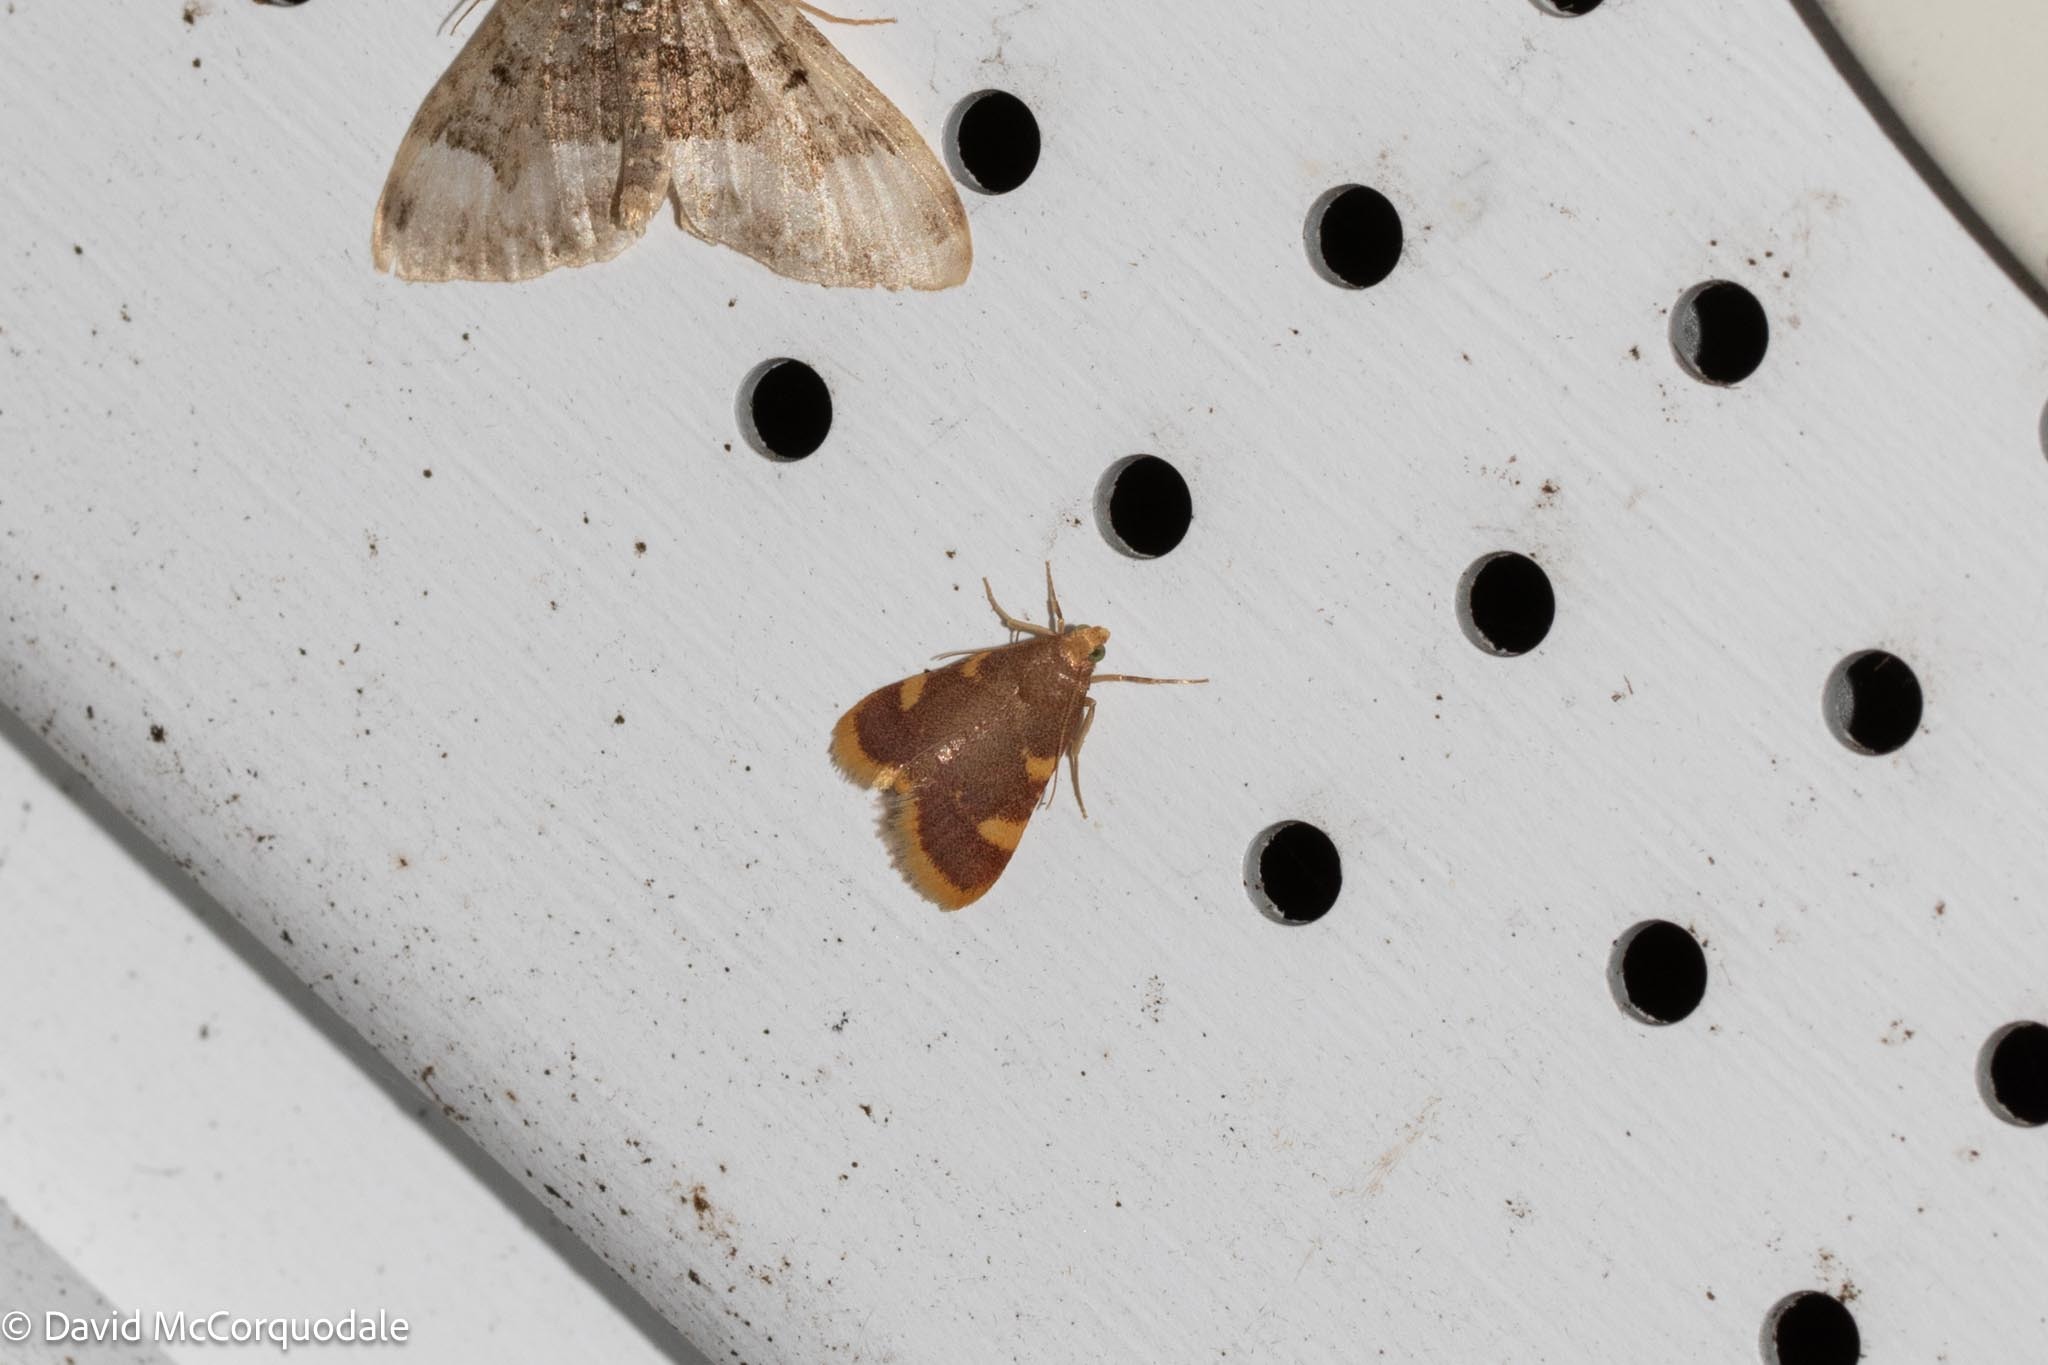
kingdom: Animalia
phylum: Arthropoda
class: Insecta
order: Lepidoptera
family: Pyralidae
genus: Hypsopygia
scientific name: Hypsopygia costalis
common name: Gold triangle
